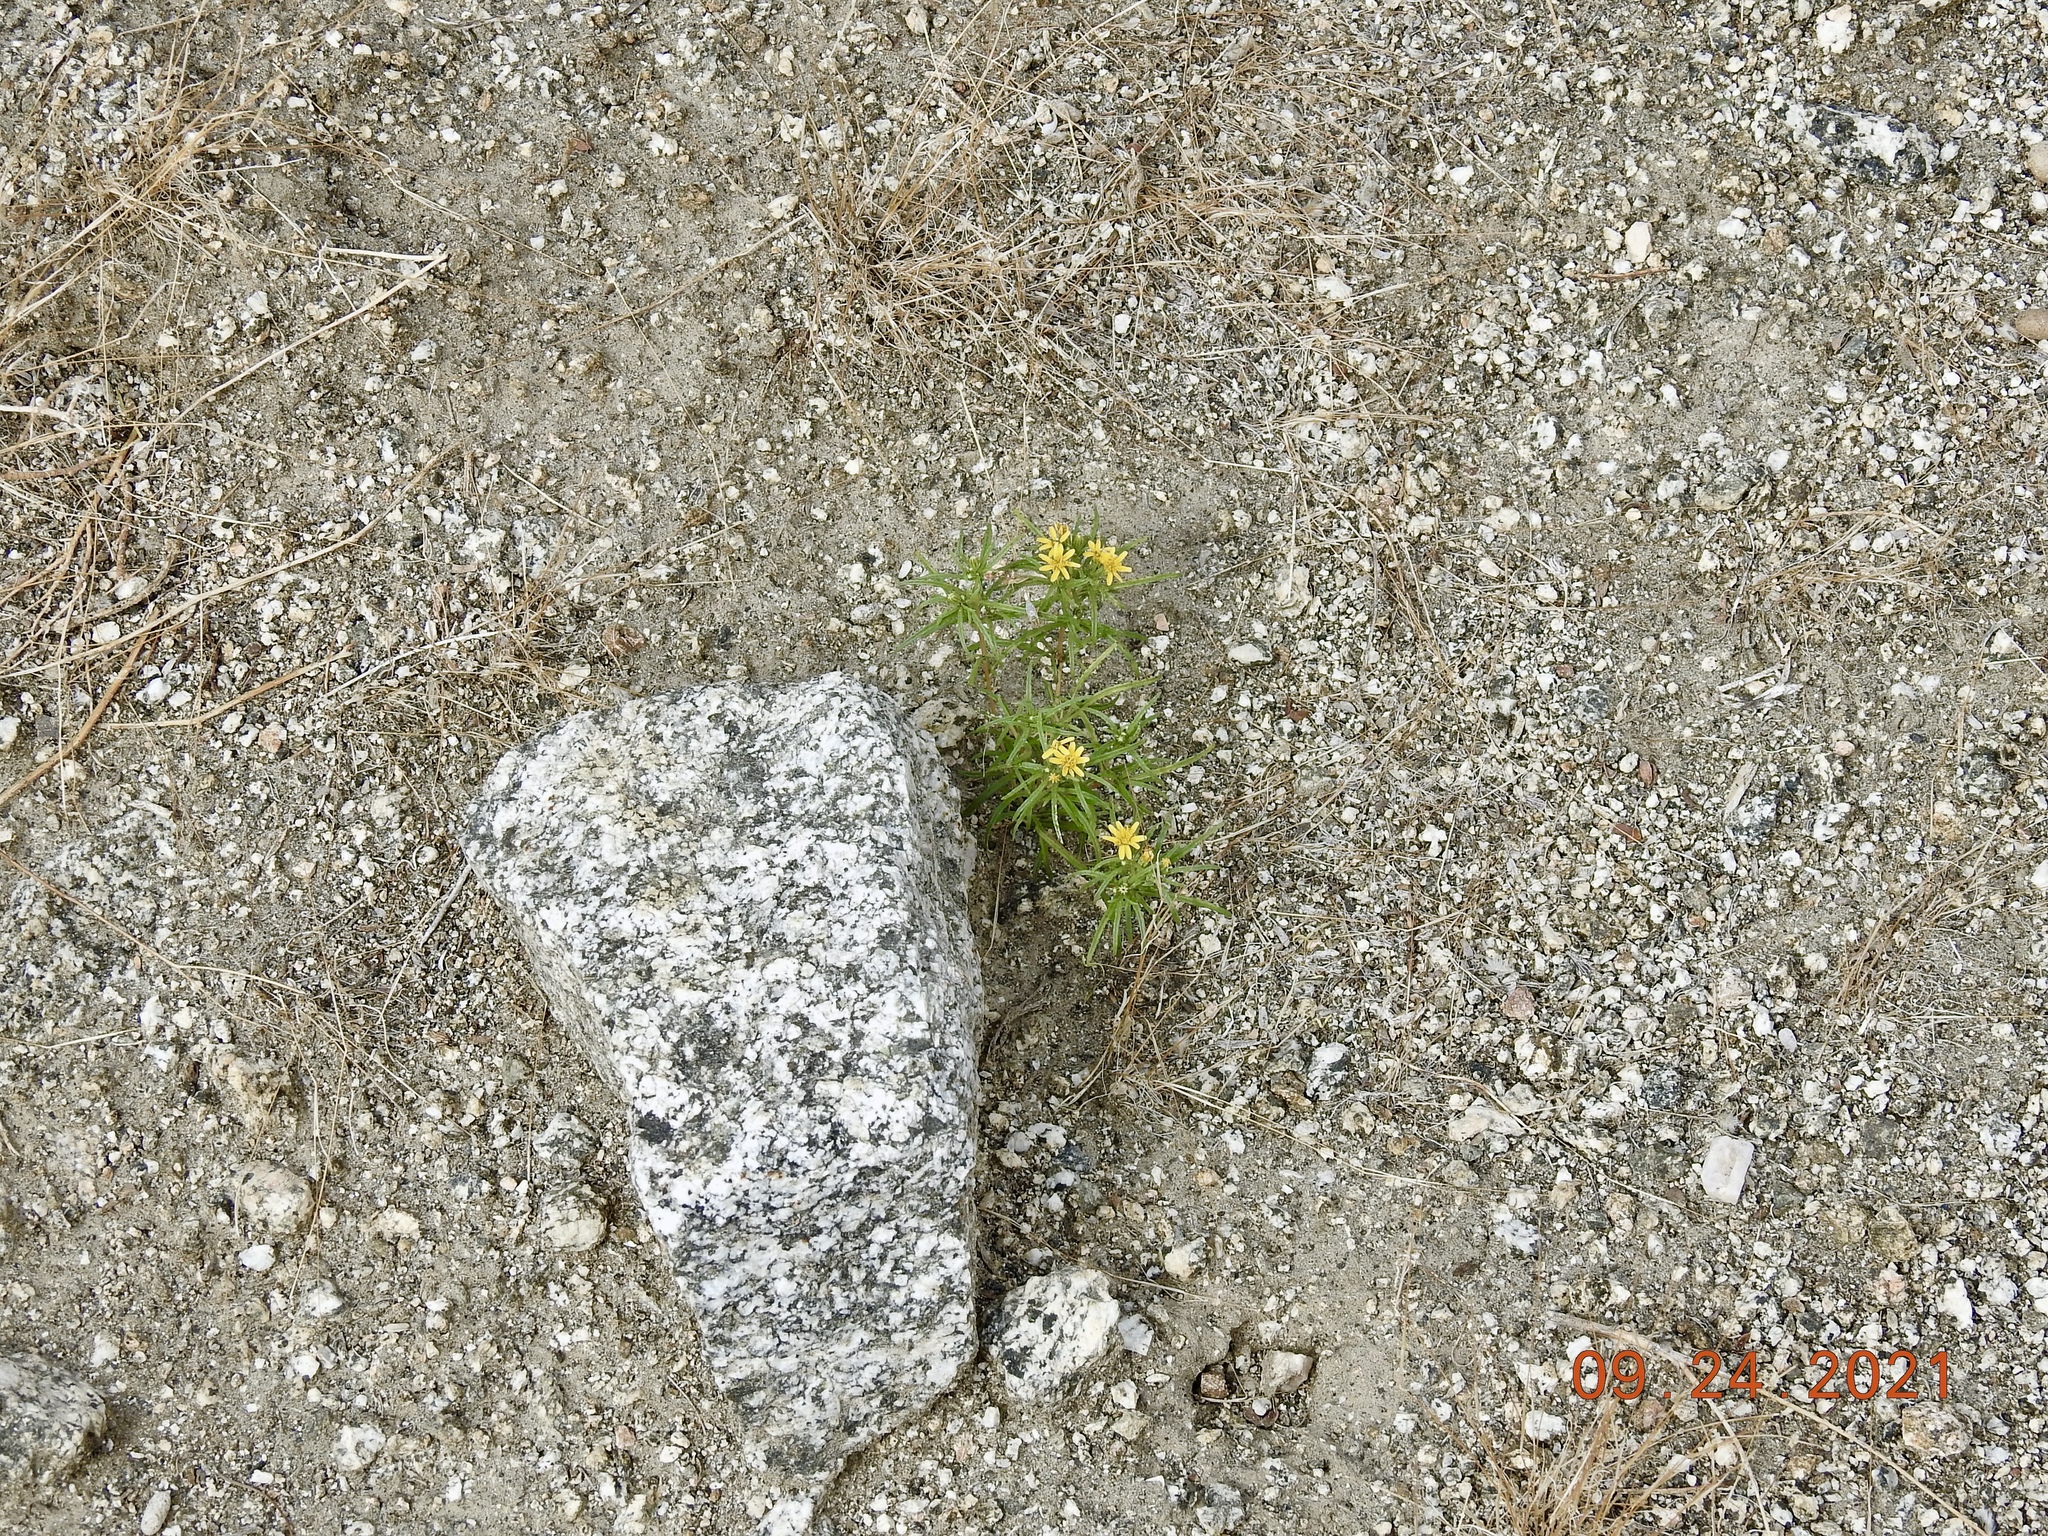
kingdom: Plantae
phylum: Tracheophyta
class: Magnoliopsida
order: Asterales
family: Asteraceae
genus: Pectis
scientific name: Pectis papposa
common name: Many-bristle chinchweed
